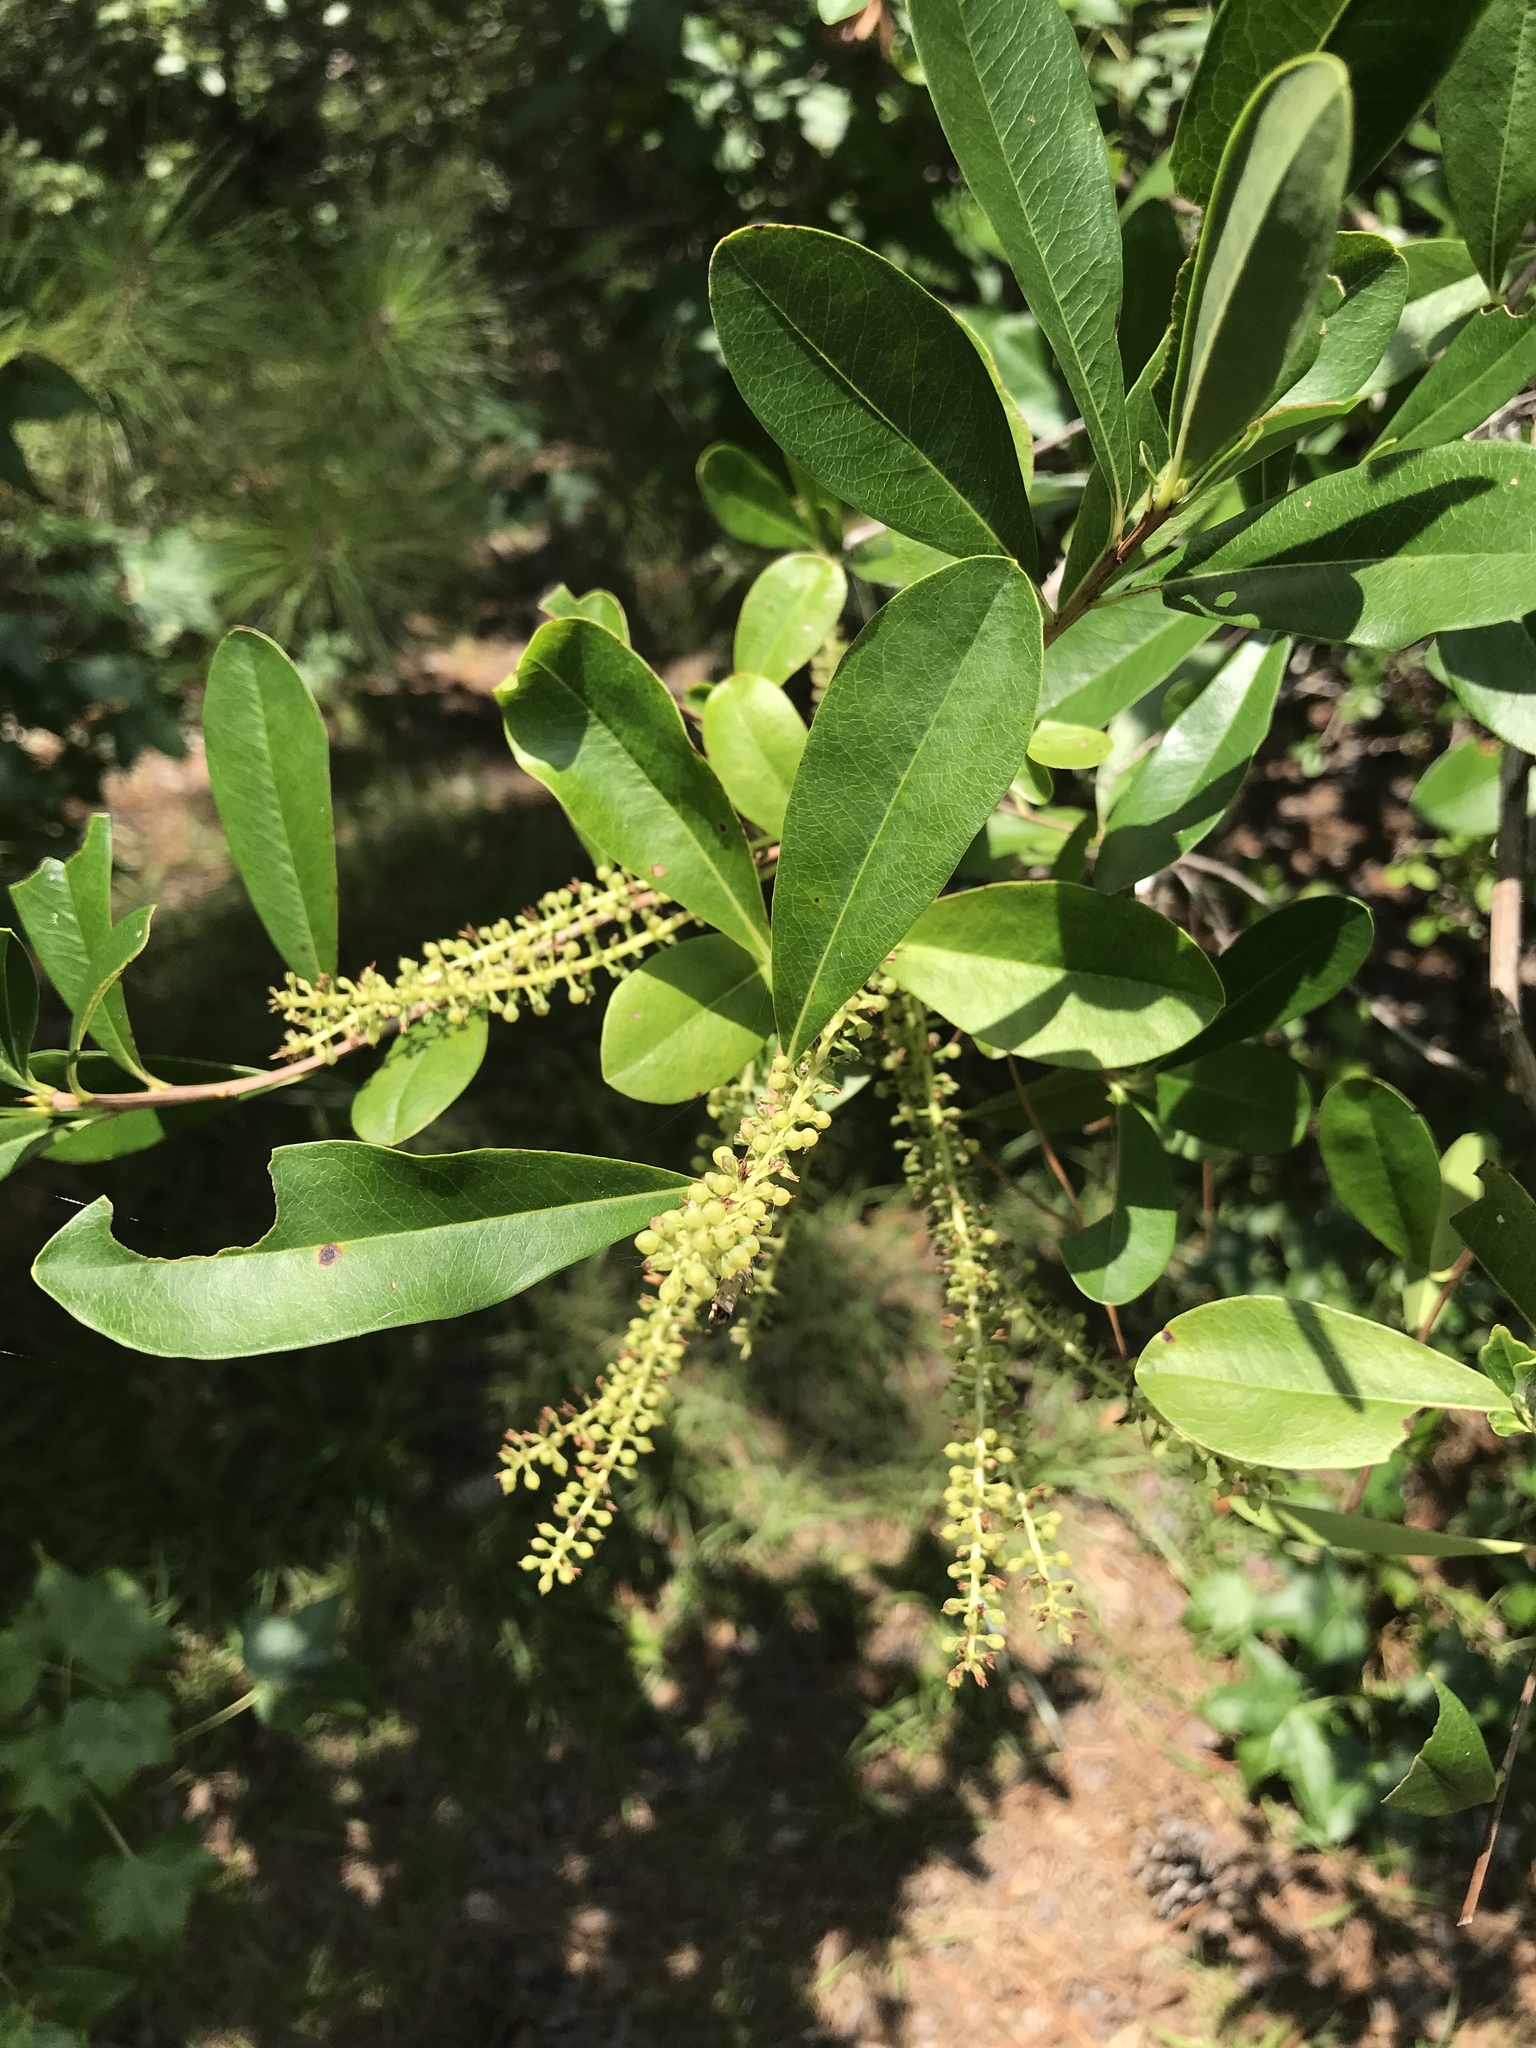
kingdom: Plantae
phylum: Tracheophyta
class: Magnoliopsida
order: Ericales
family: Cyrillaceae
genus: Cyrilla
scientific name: Cyrilla racemiflora
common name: Black titi
